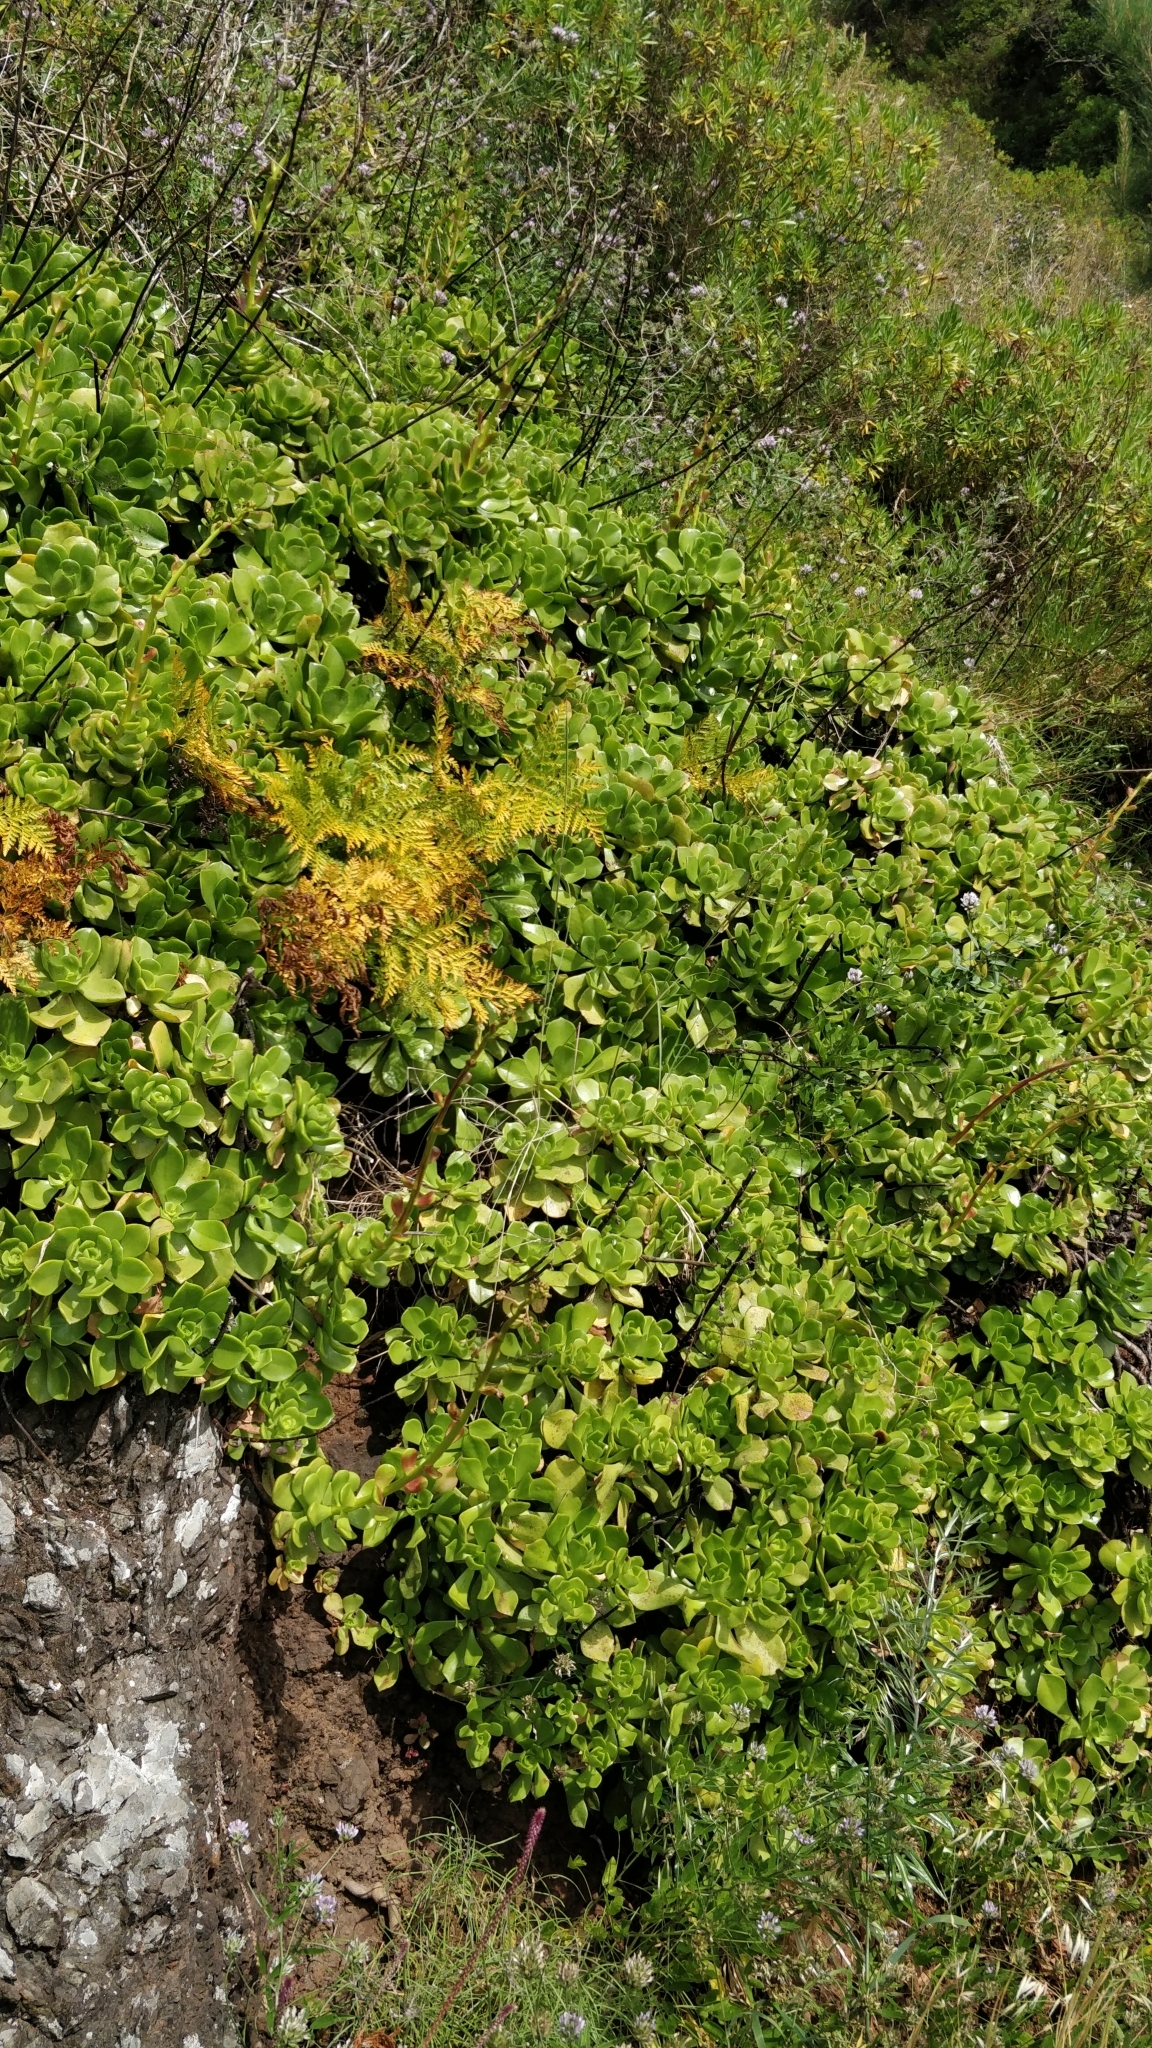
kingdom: Plantae
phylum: Tracheophyta
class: Magnoliopsida
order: Saxifragales
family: Crassulaceae
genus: Aeonium
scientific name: Aeonium glutinosum
